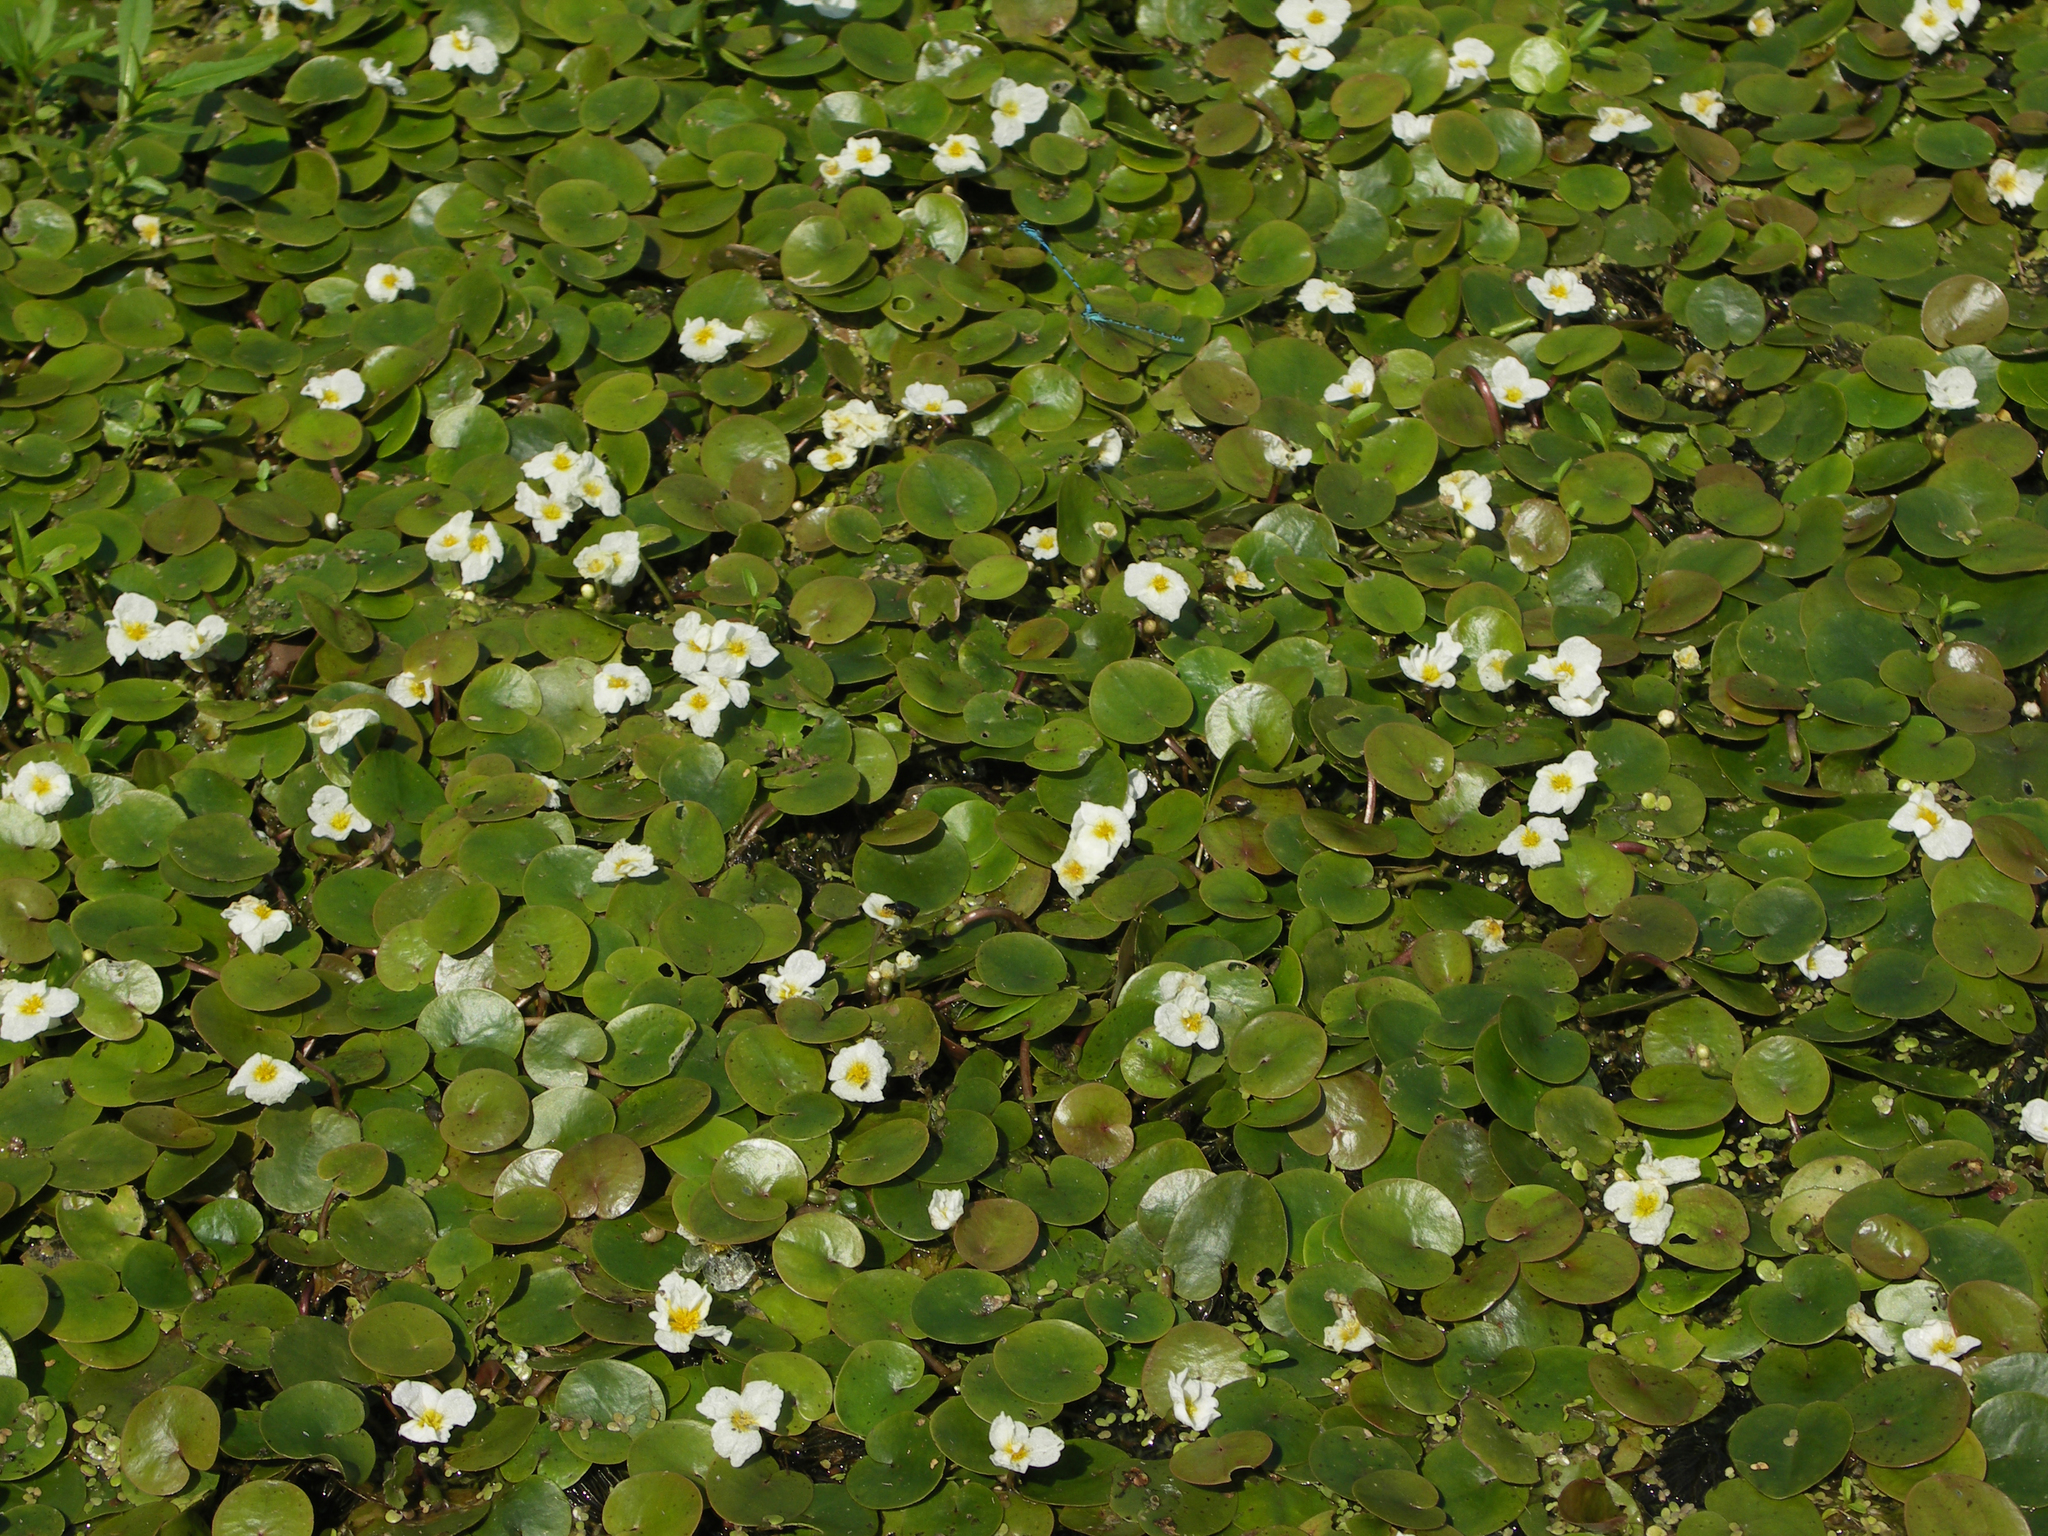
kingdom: Plantae
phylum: Tracheophyta
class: Liliopsida
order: Alismatales
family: Hydrocharitaceae
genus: Hydrocharis
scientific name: Hydrocharis morsus-ranae
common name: Frogbit
